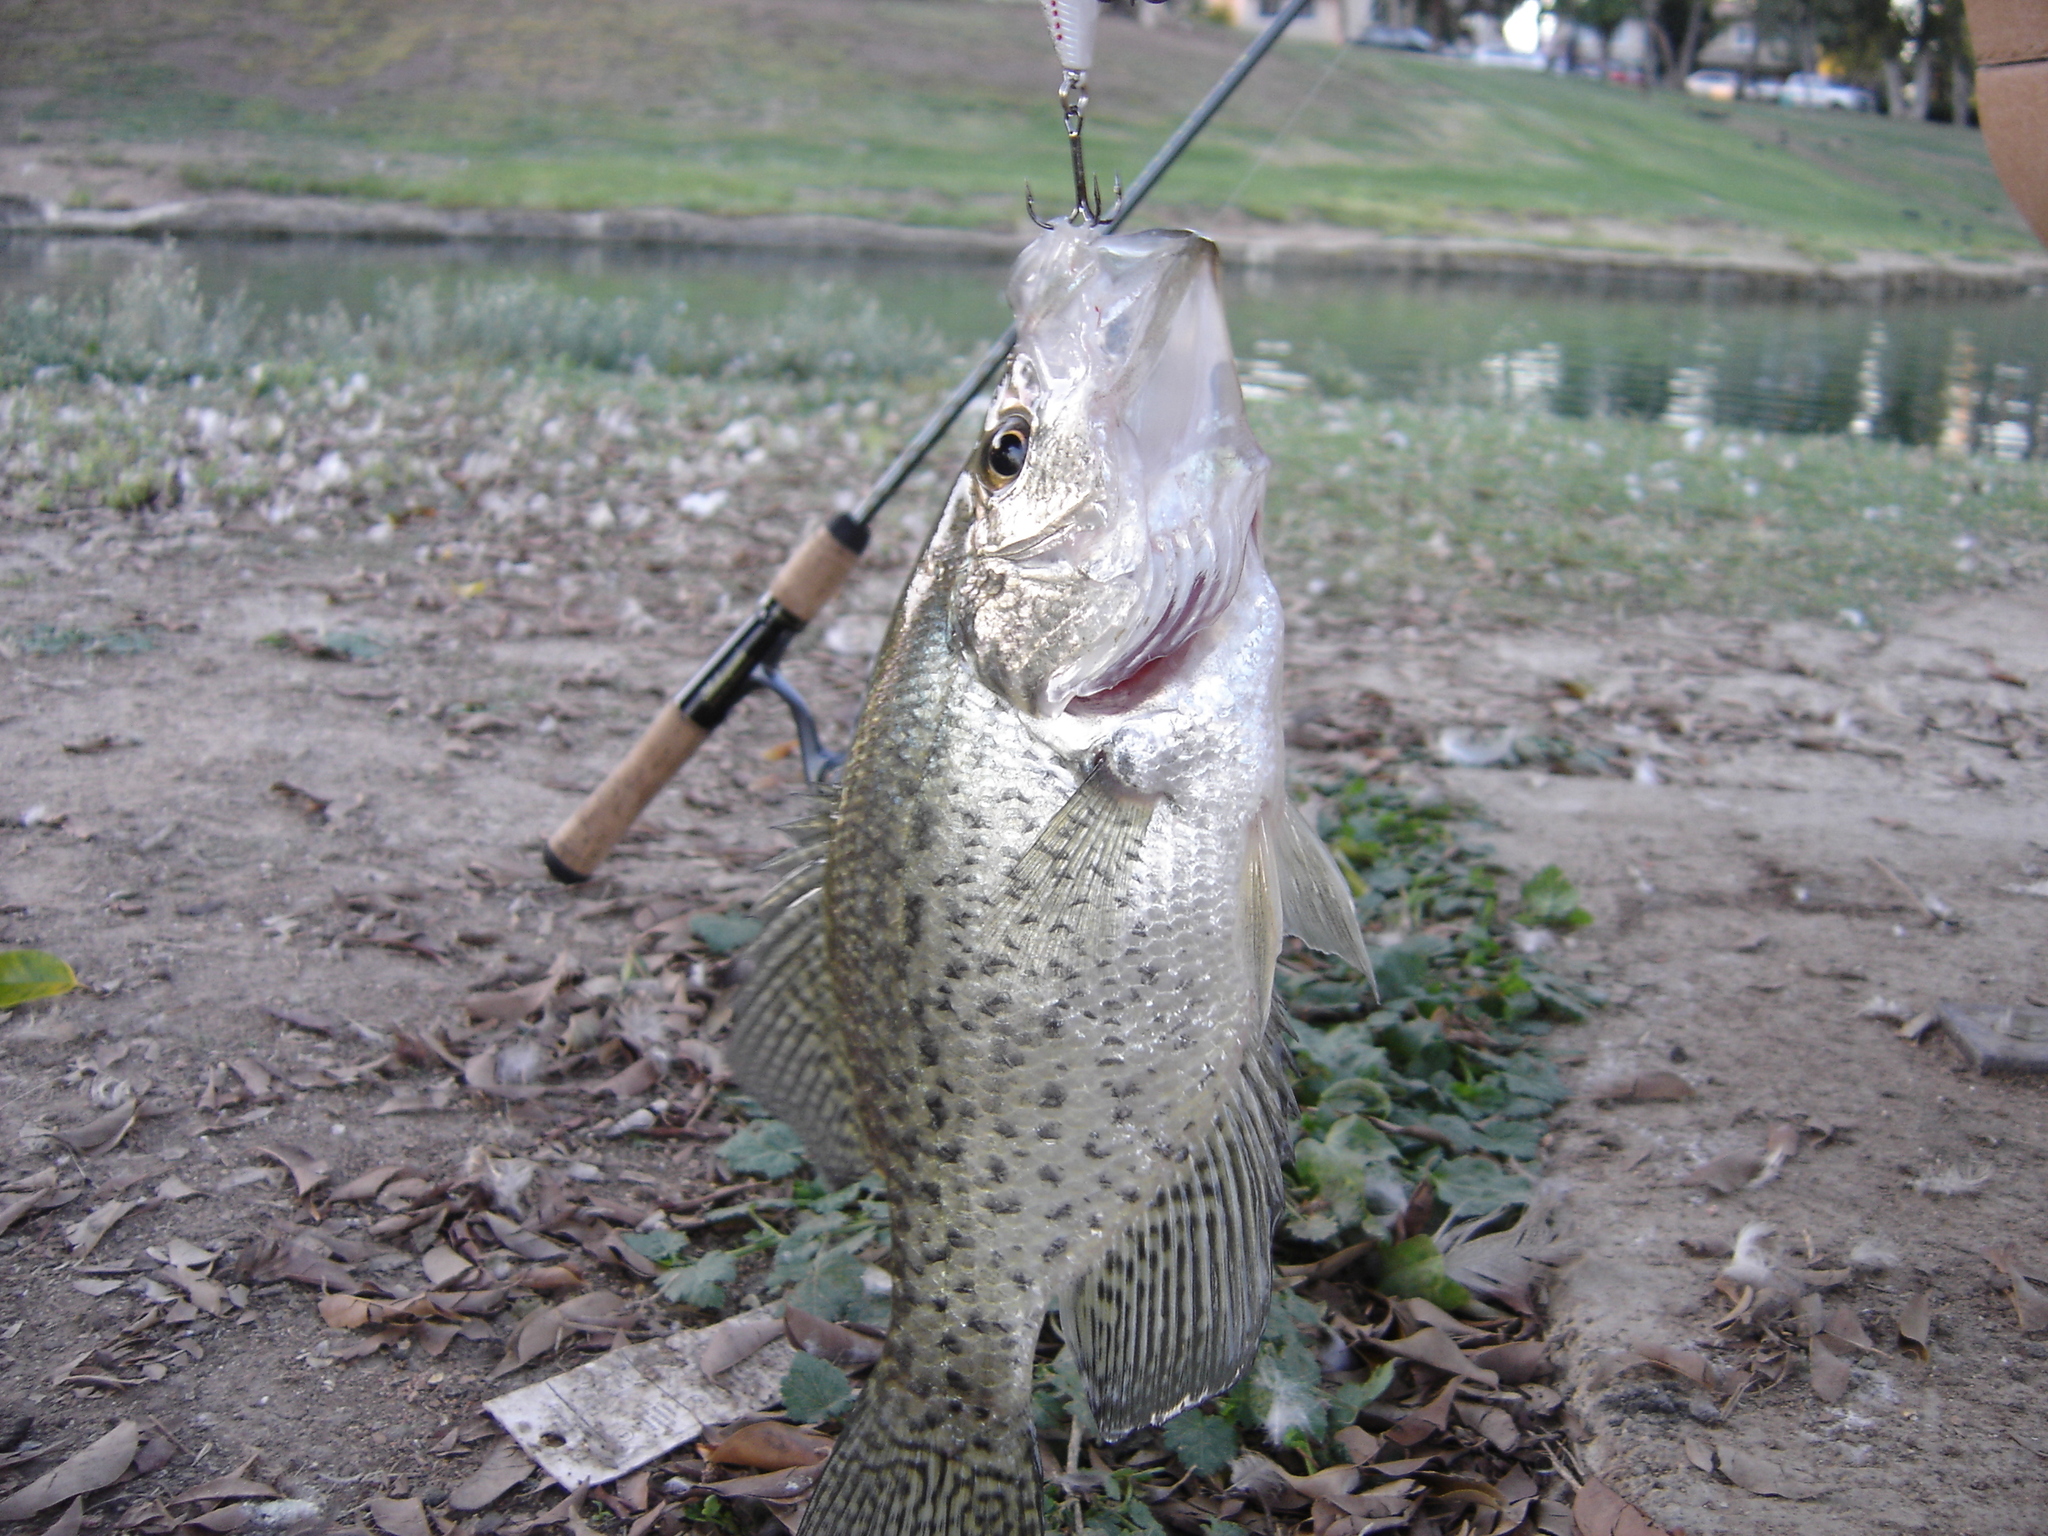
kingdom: Animalia
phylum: Chordata
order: Perciformes
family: Centrarchidae
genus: Pomoxis
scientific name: Pomoxis nigromaculatus
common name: Black crappie
